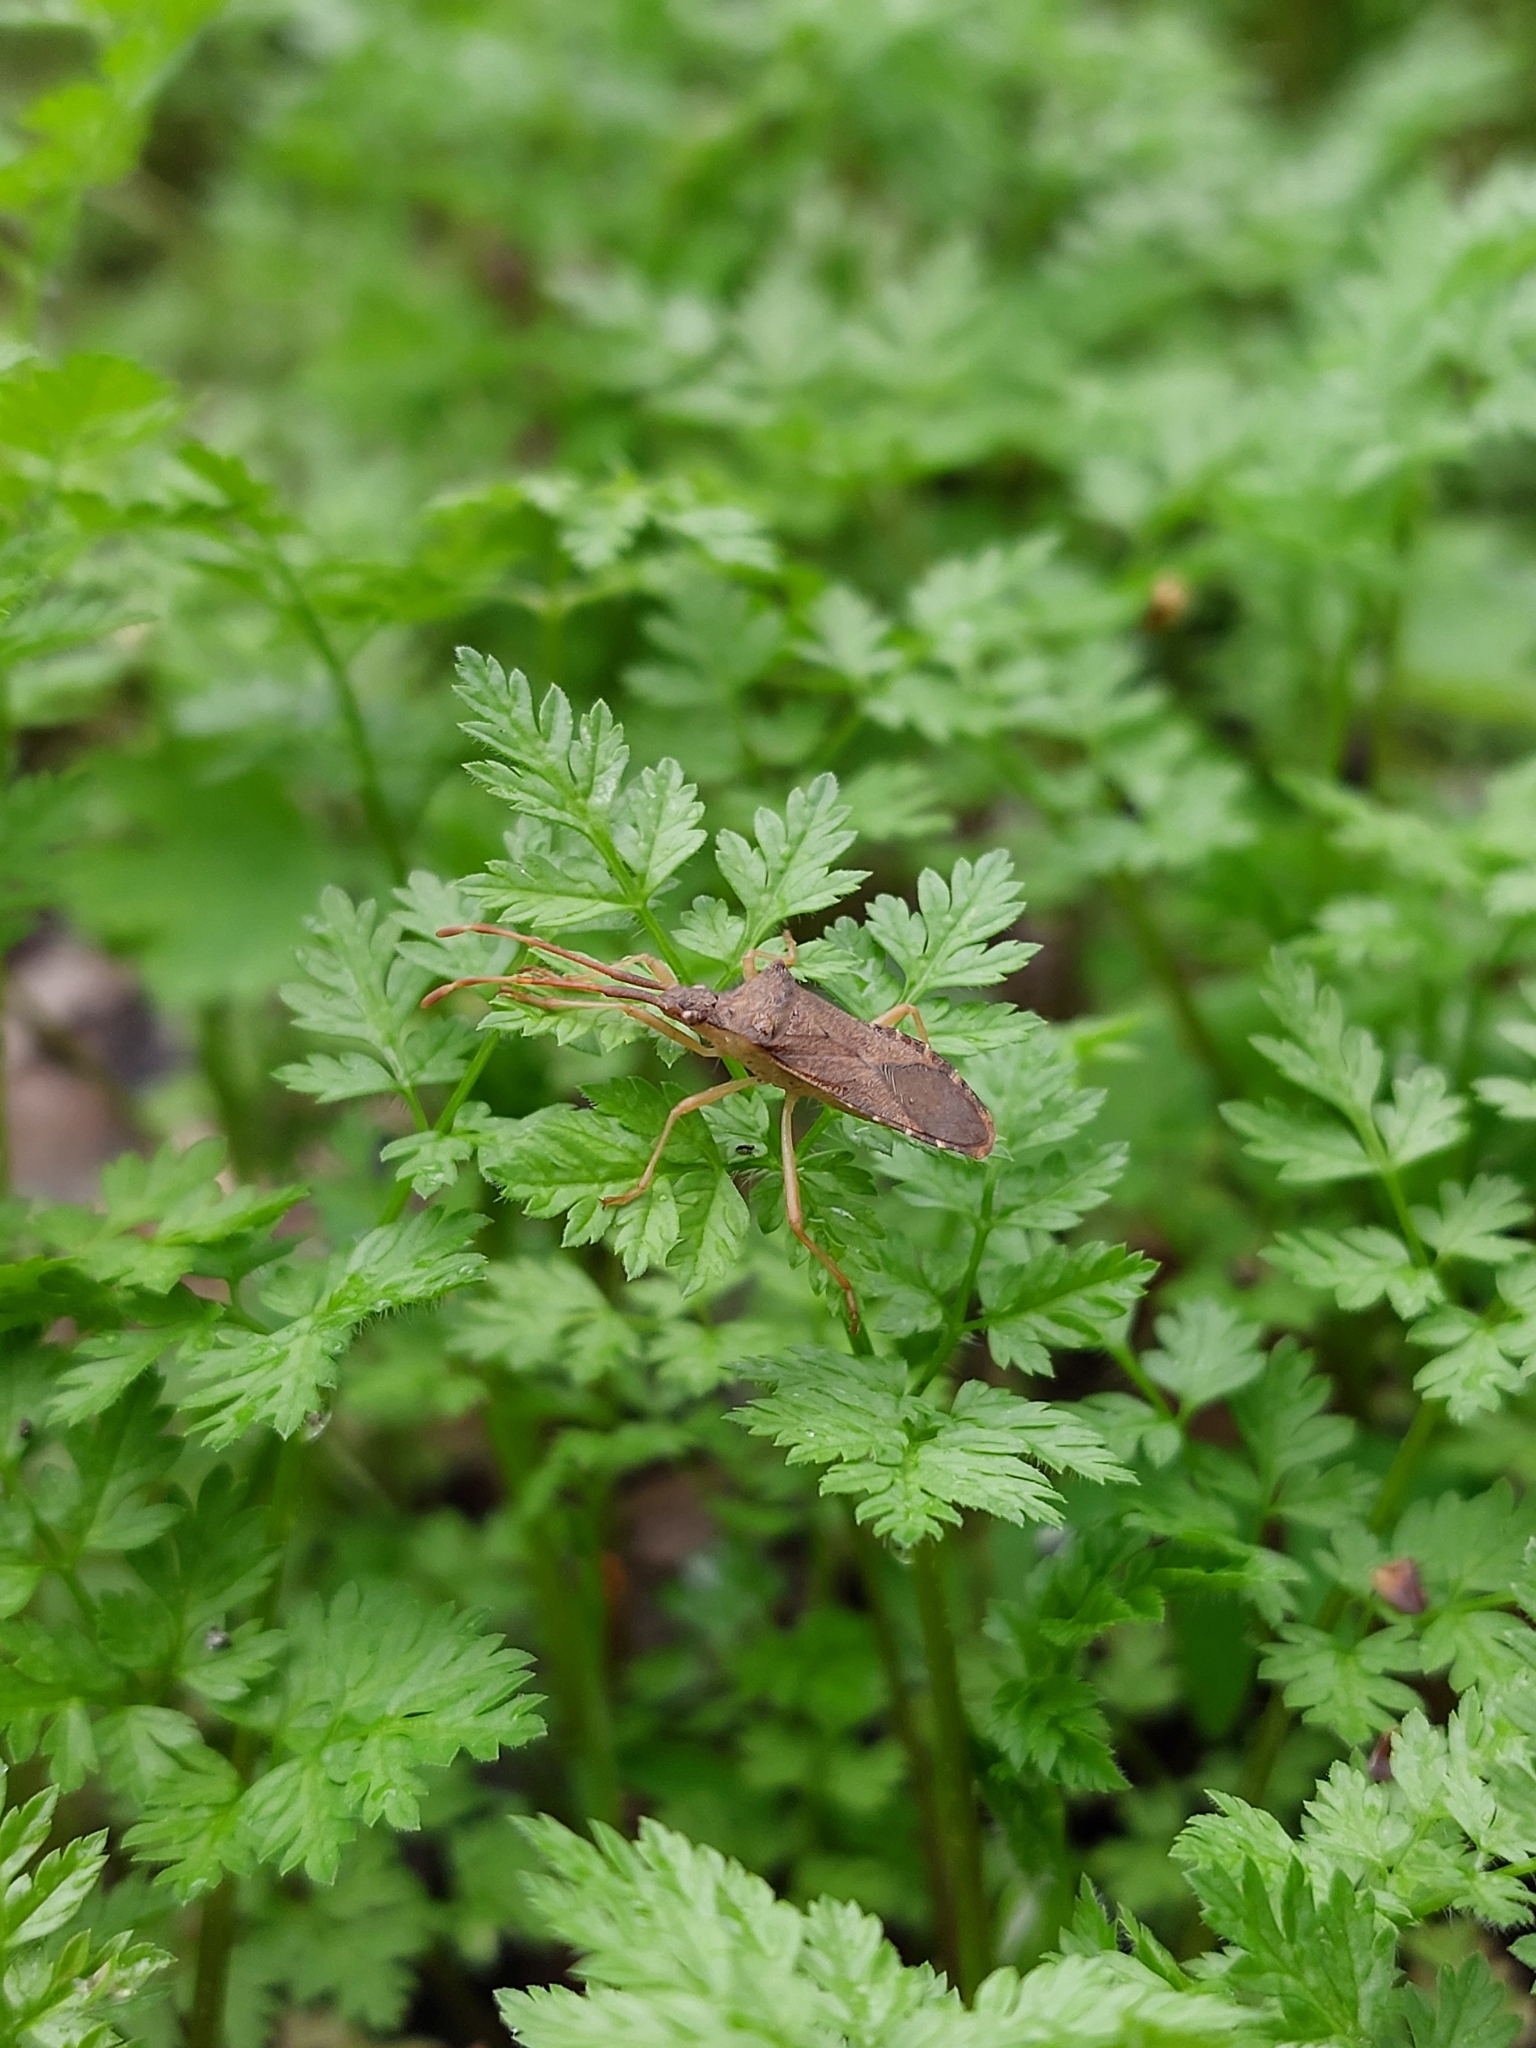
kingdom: Animalia
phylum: Arthropoda
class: Insecta
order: Hemiptera
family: Coreidae
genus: Gonocerus
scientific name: Gonocerus acuteangulatus
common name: Box bug
